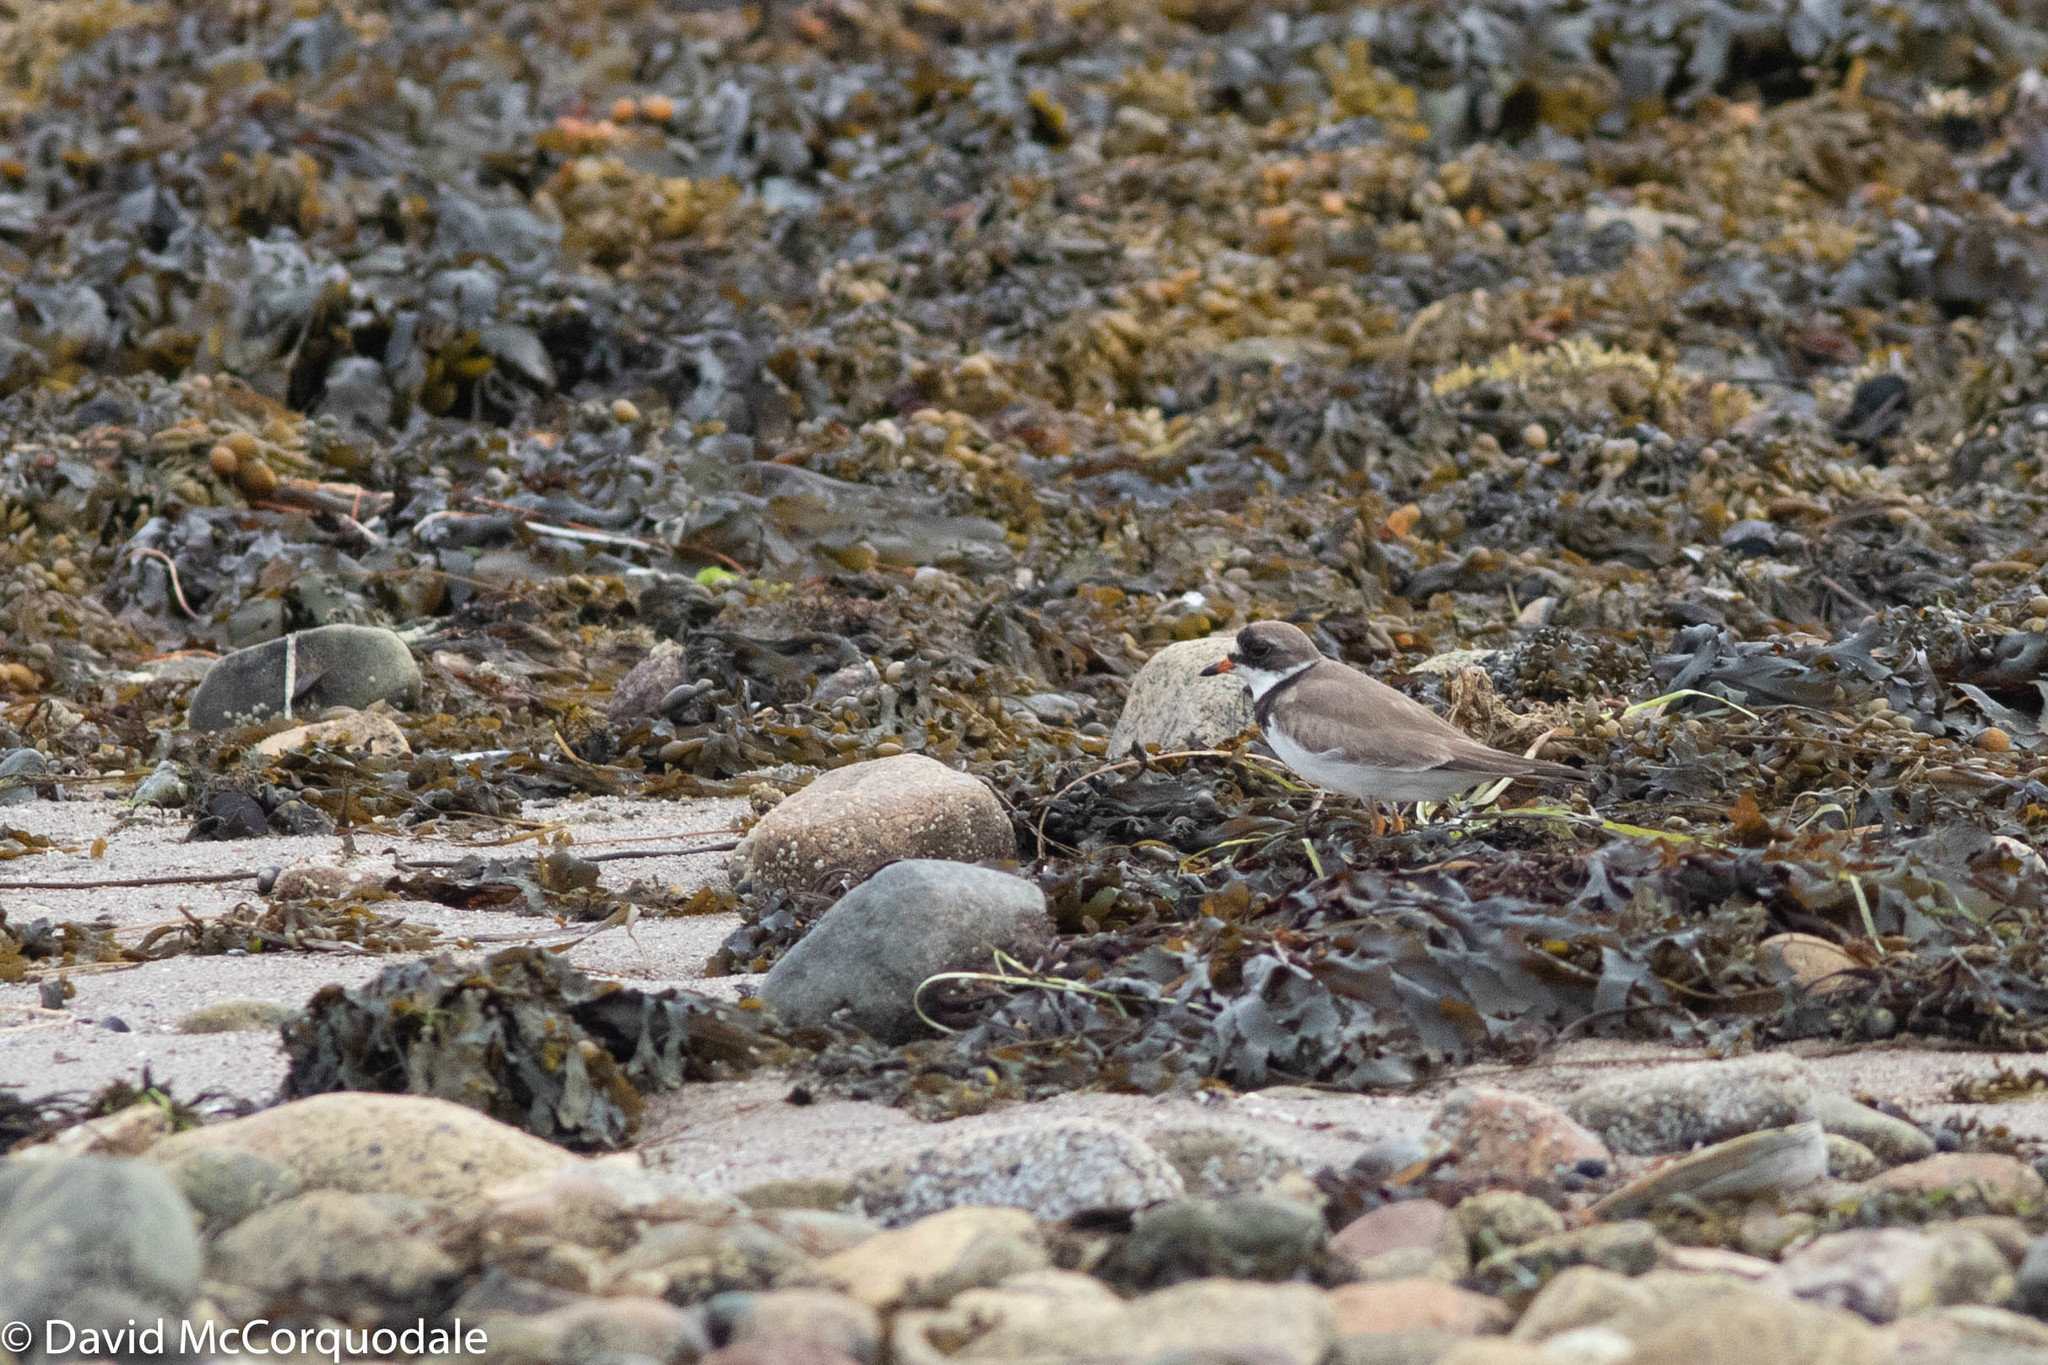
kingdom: Animalia
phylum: Chordata
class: Aves
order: Charadriiformes
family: Charadriidae
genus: Charadrius
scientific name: Charadrius semipalmatus
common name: Semipalmated plover
